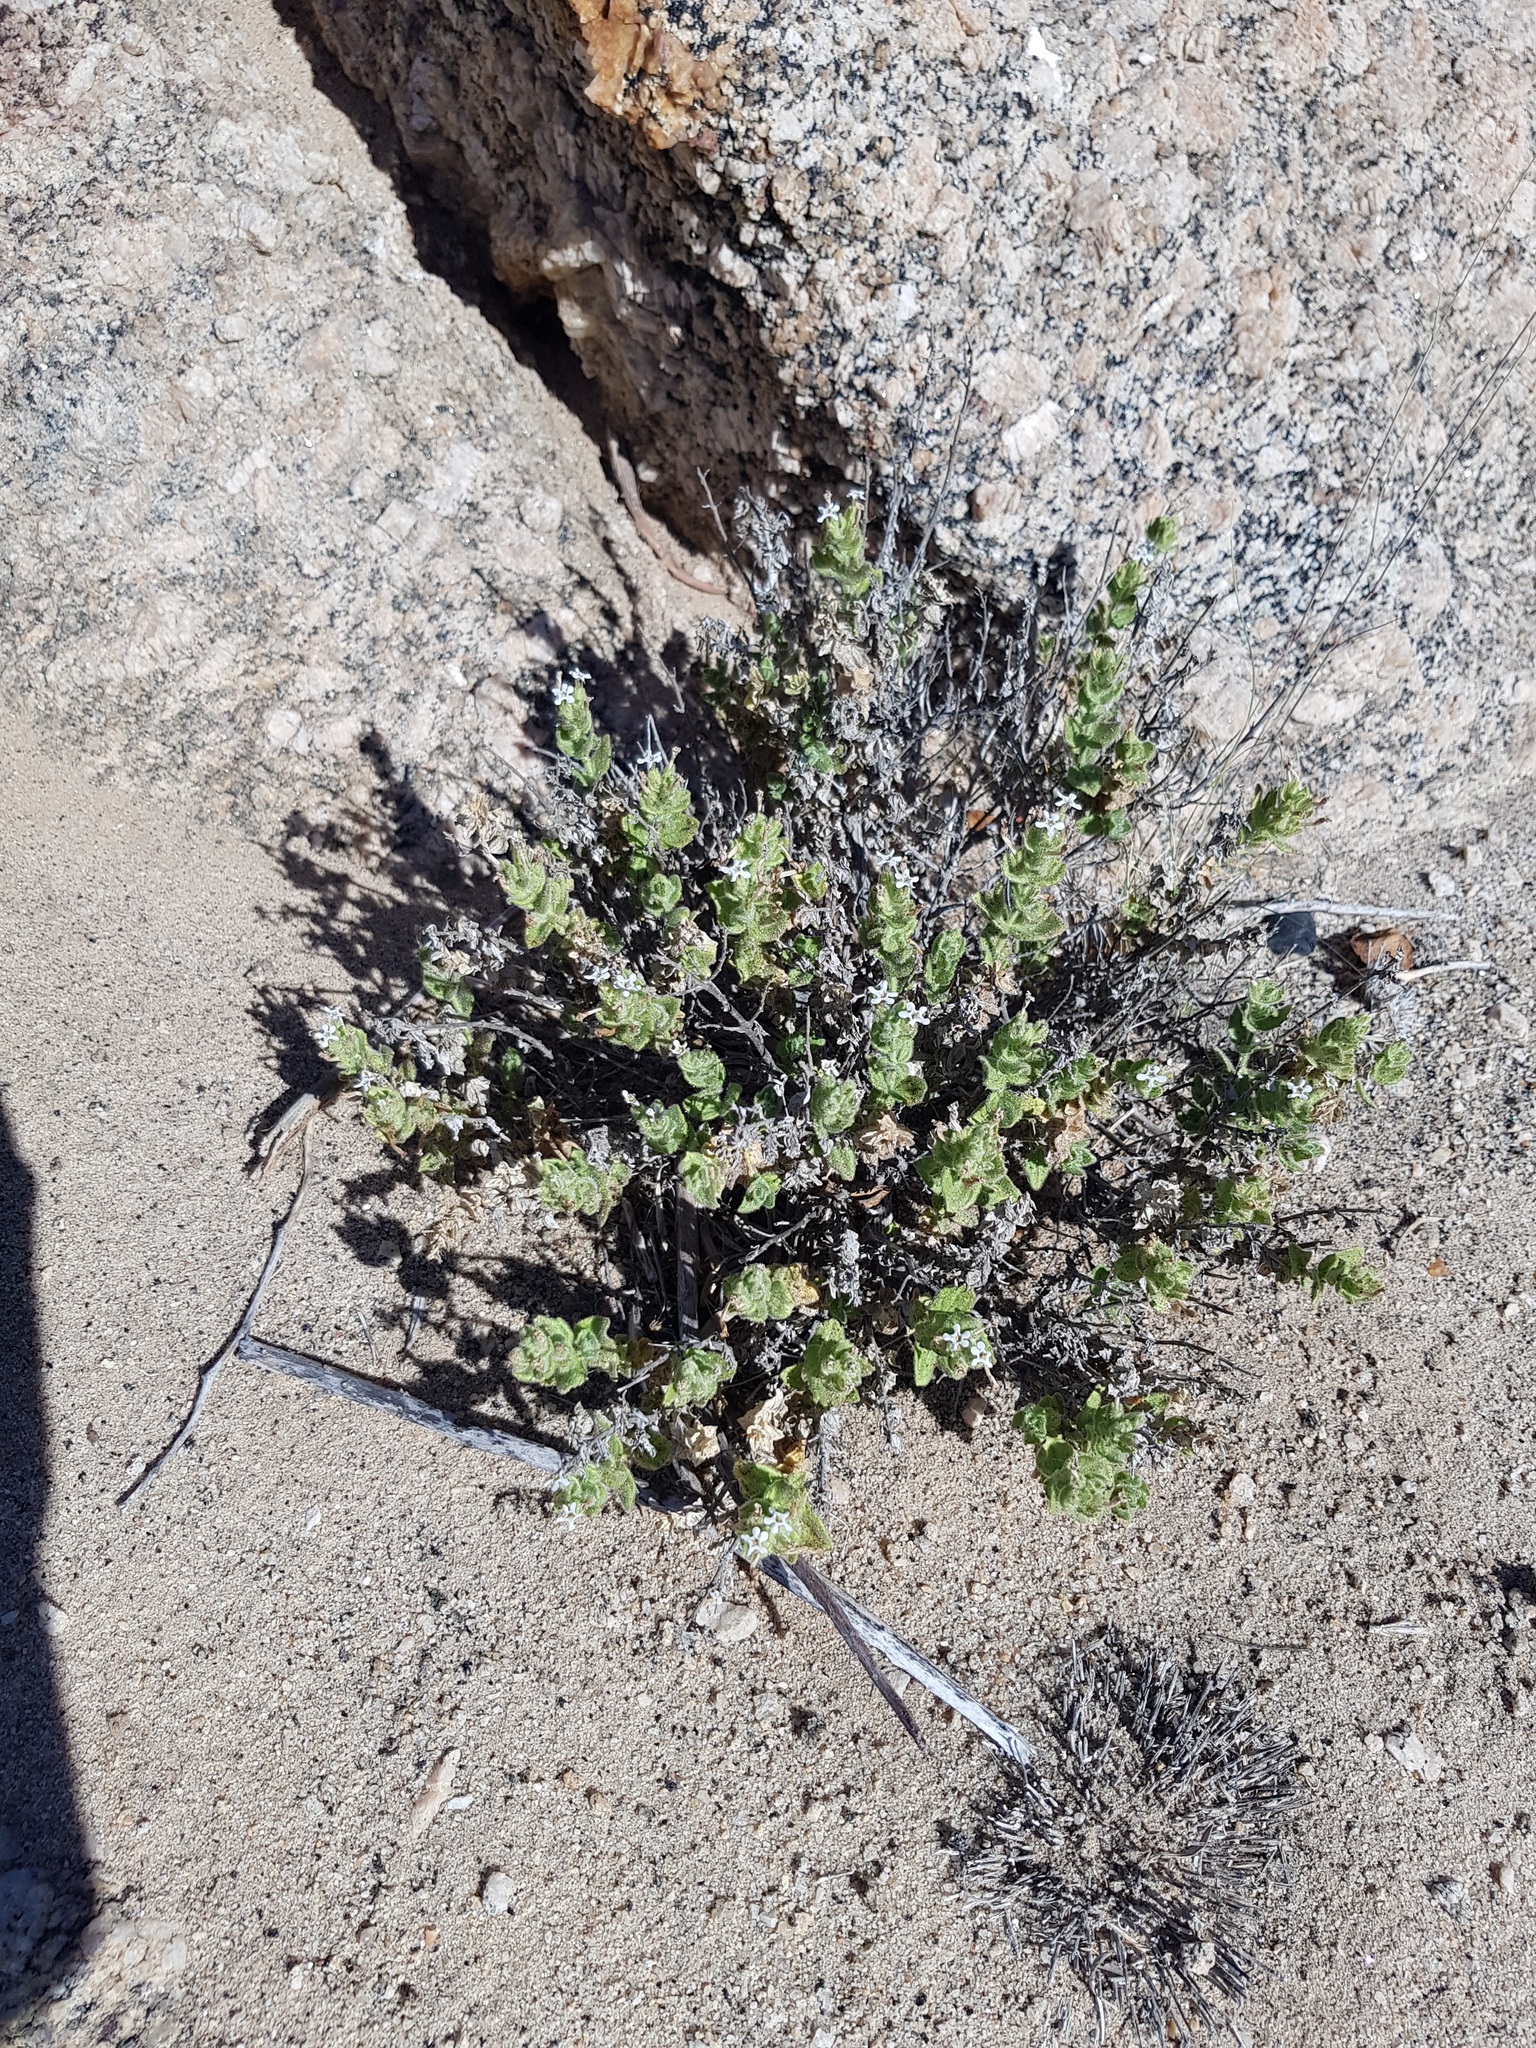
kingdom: Plantae
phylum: Tracheophyta
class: Magnoliopsida
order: Lamiales
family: Scrophulariaceae
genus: Jamesbrittenia
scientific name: Jamesbrittenia maxii
